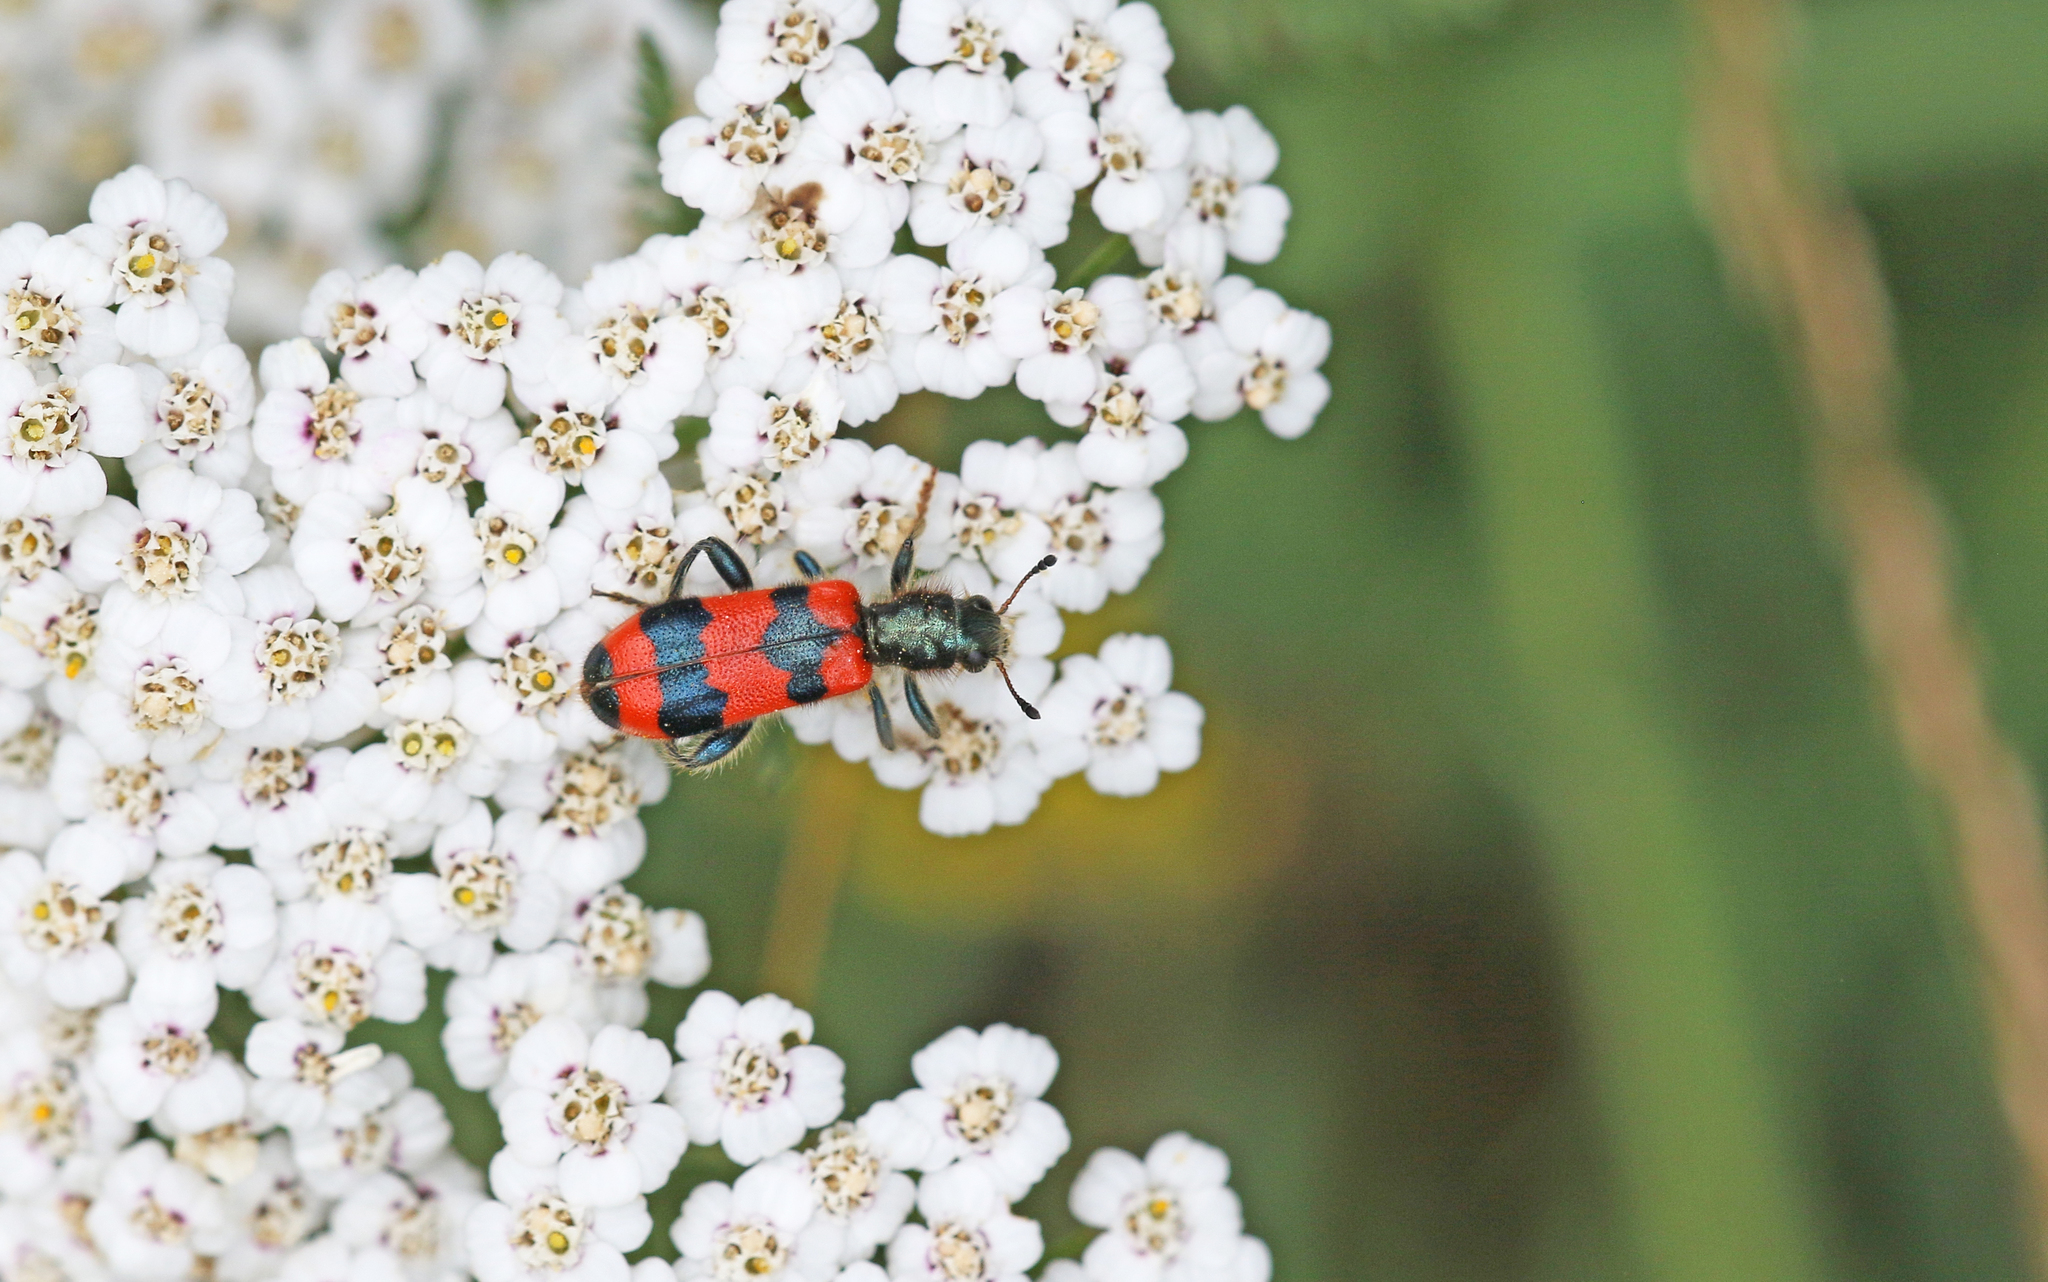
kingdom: Animalia
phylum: Arthropoda
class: Insecta
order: Coleoptera
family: Cleridae
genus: Trichodes
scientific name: Trichodes apiarius
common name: Bee-eating beetle
